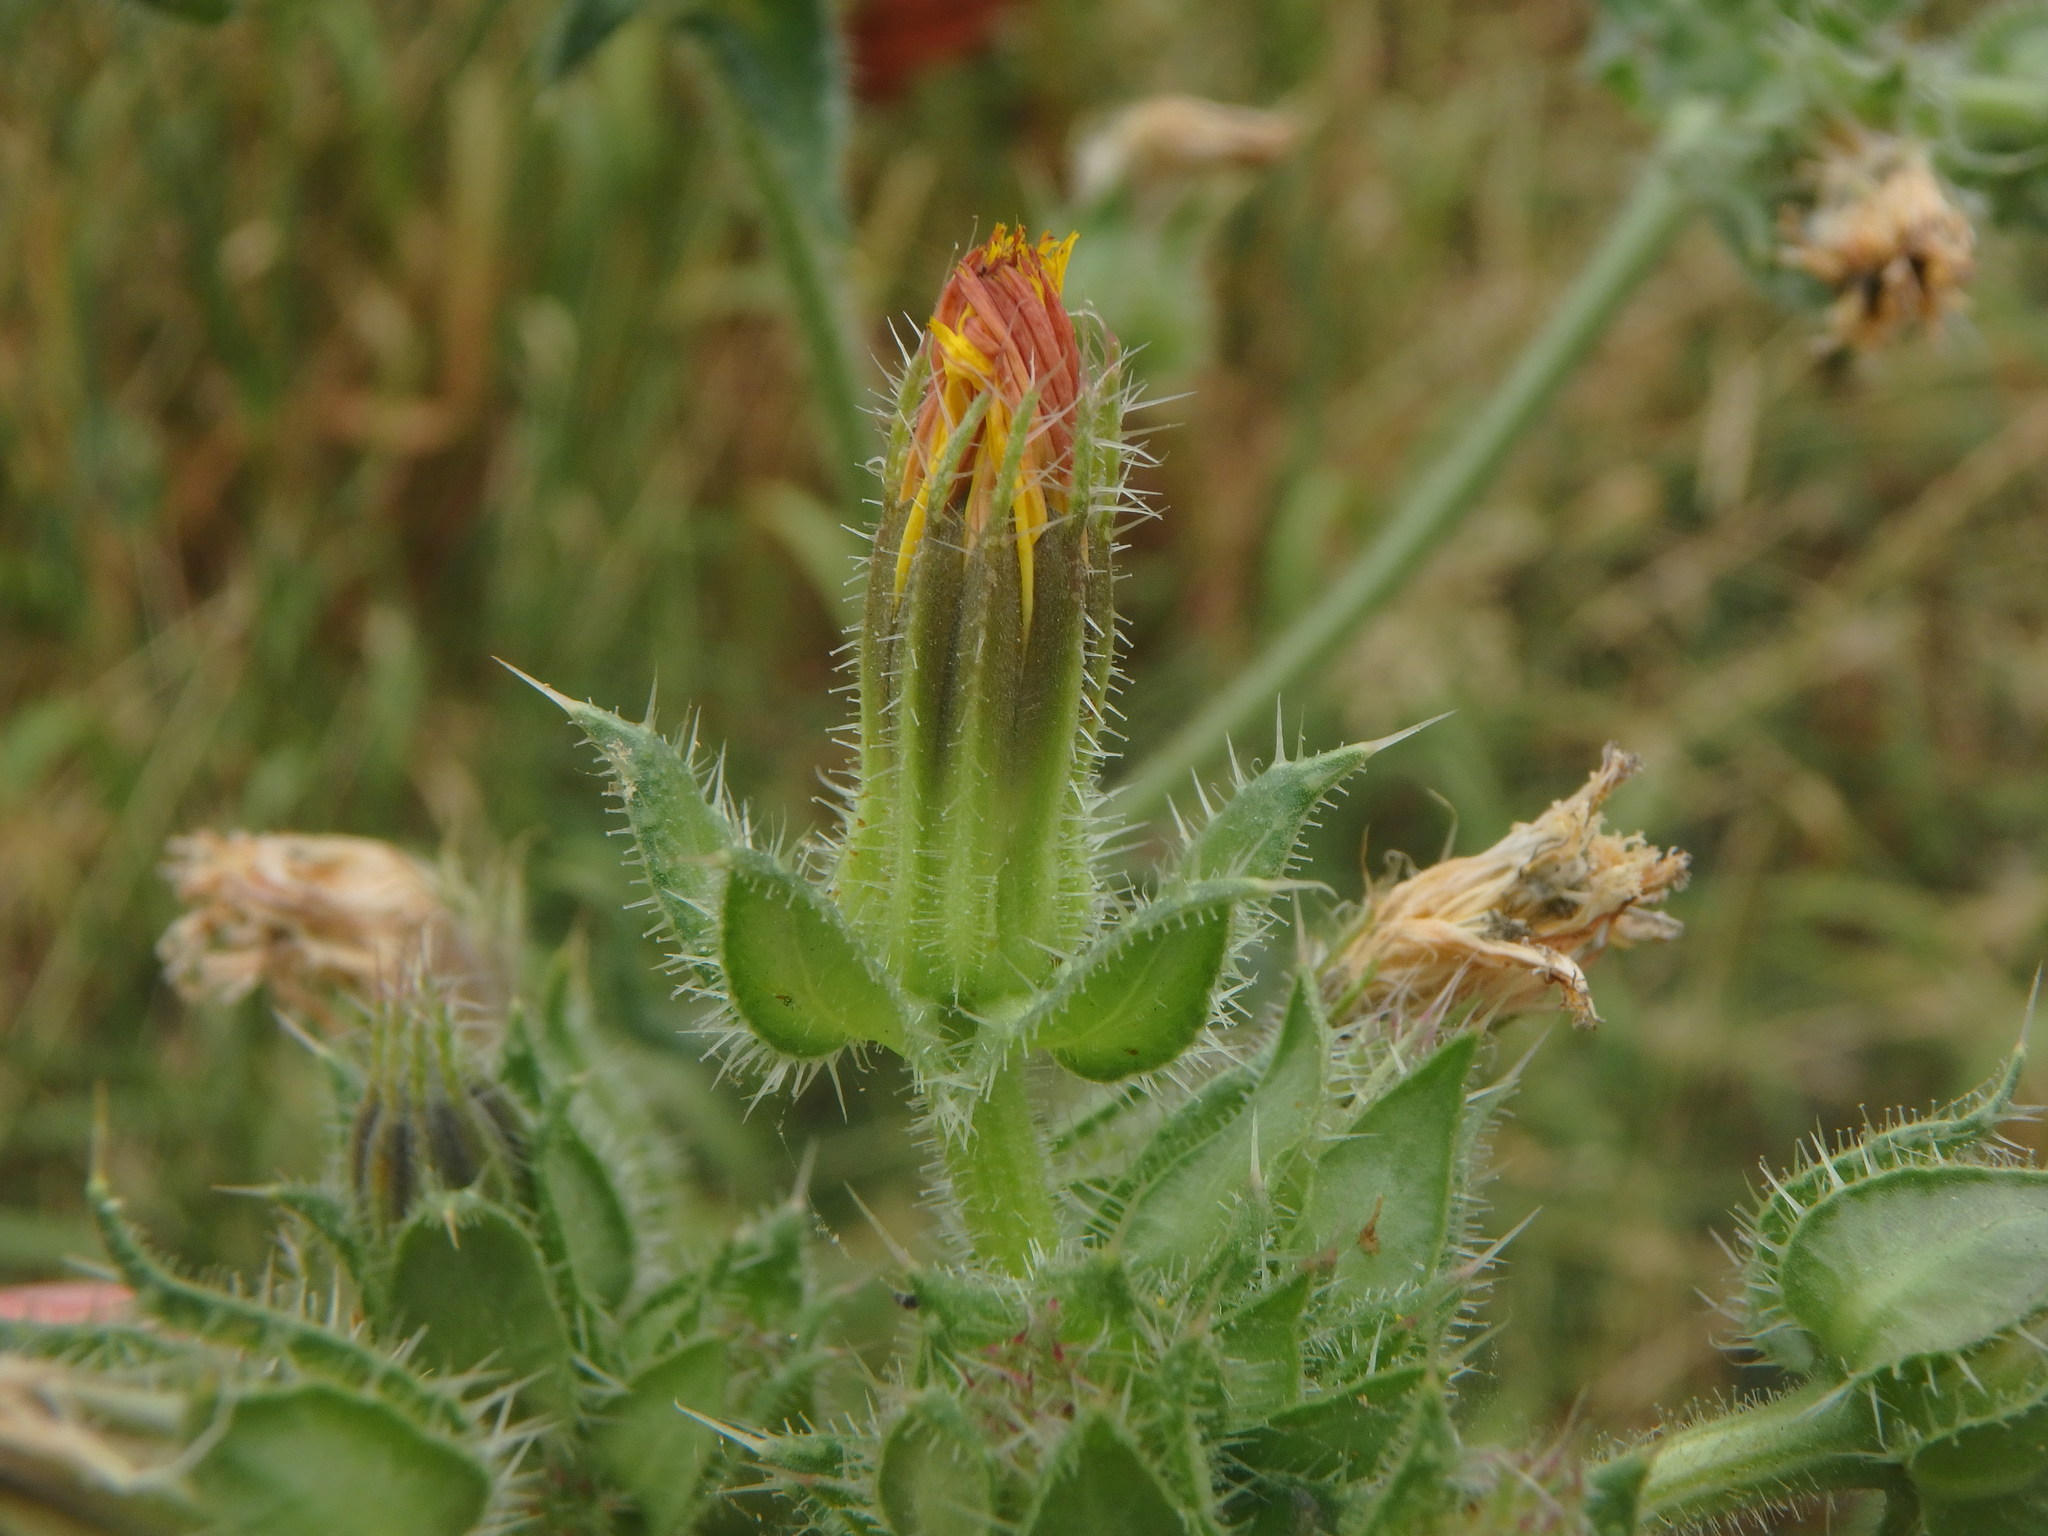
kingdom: Plantae
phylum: Tracheophyta
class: Magnoliopsida
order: Asterales
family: Asteraceae
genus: Helminthotheca
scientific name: Helminthotheca echioides
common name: Ox-tongue
